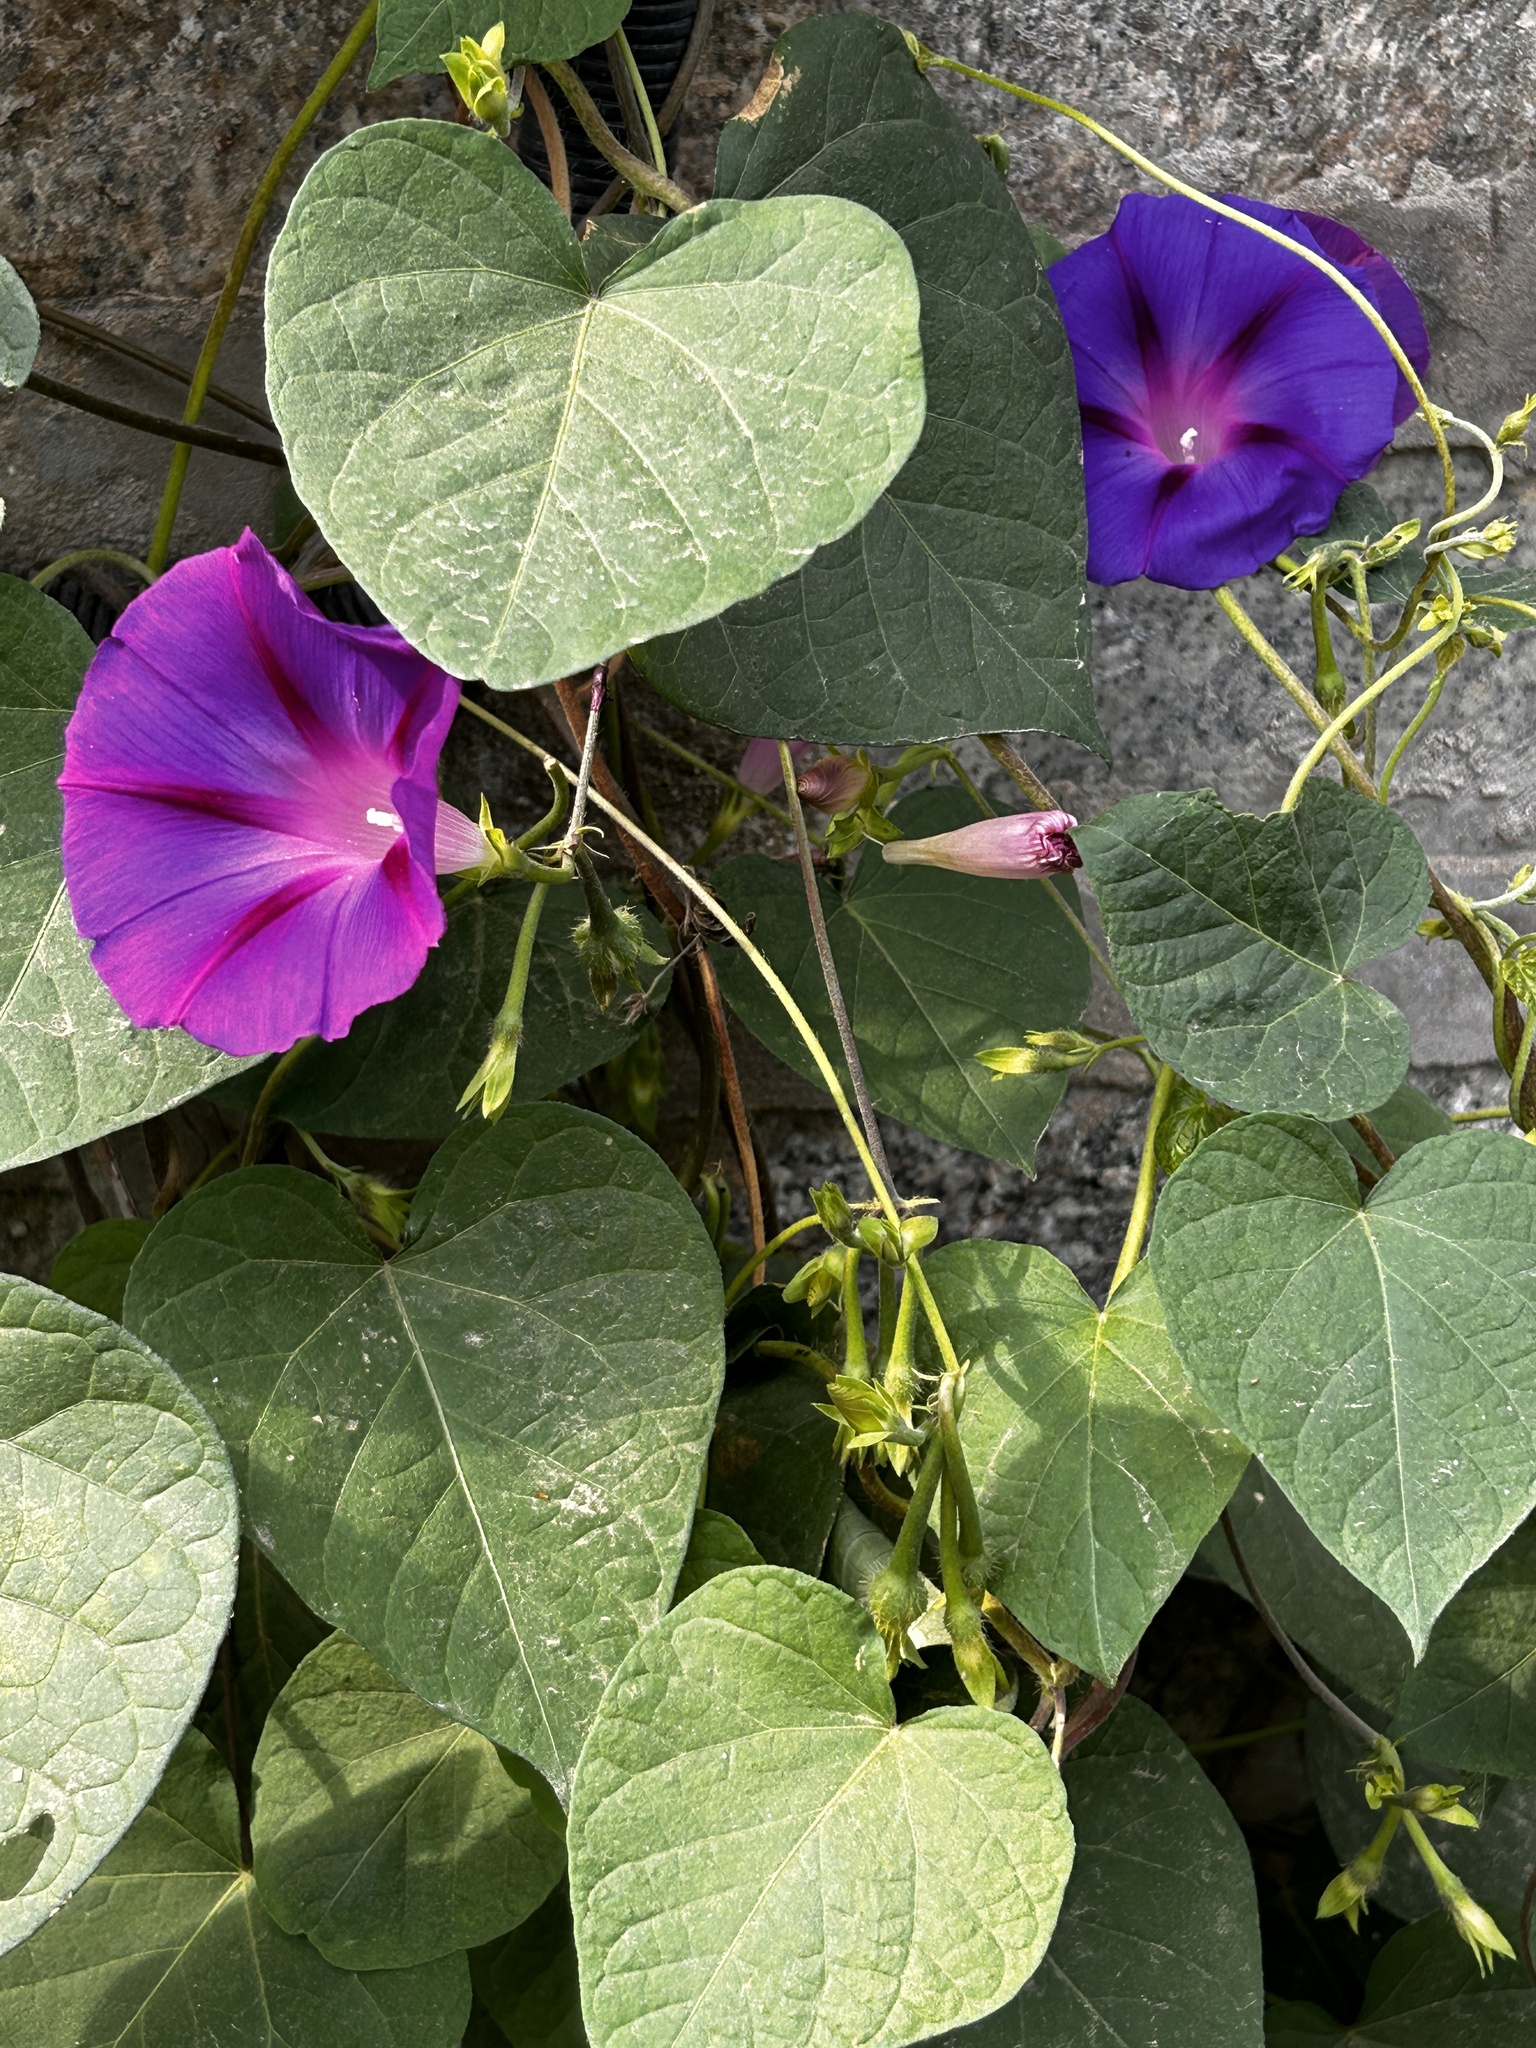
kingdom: Plantae
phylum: Tracheophyta
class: Magnoliopsida
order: Solanales
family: Convolvulaceae
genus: Ipomoea
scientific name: Ipomoea purpurea
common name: Common morning-glory
